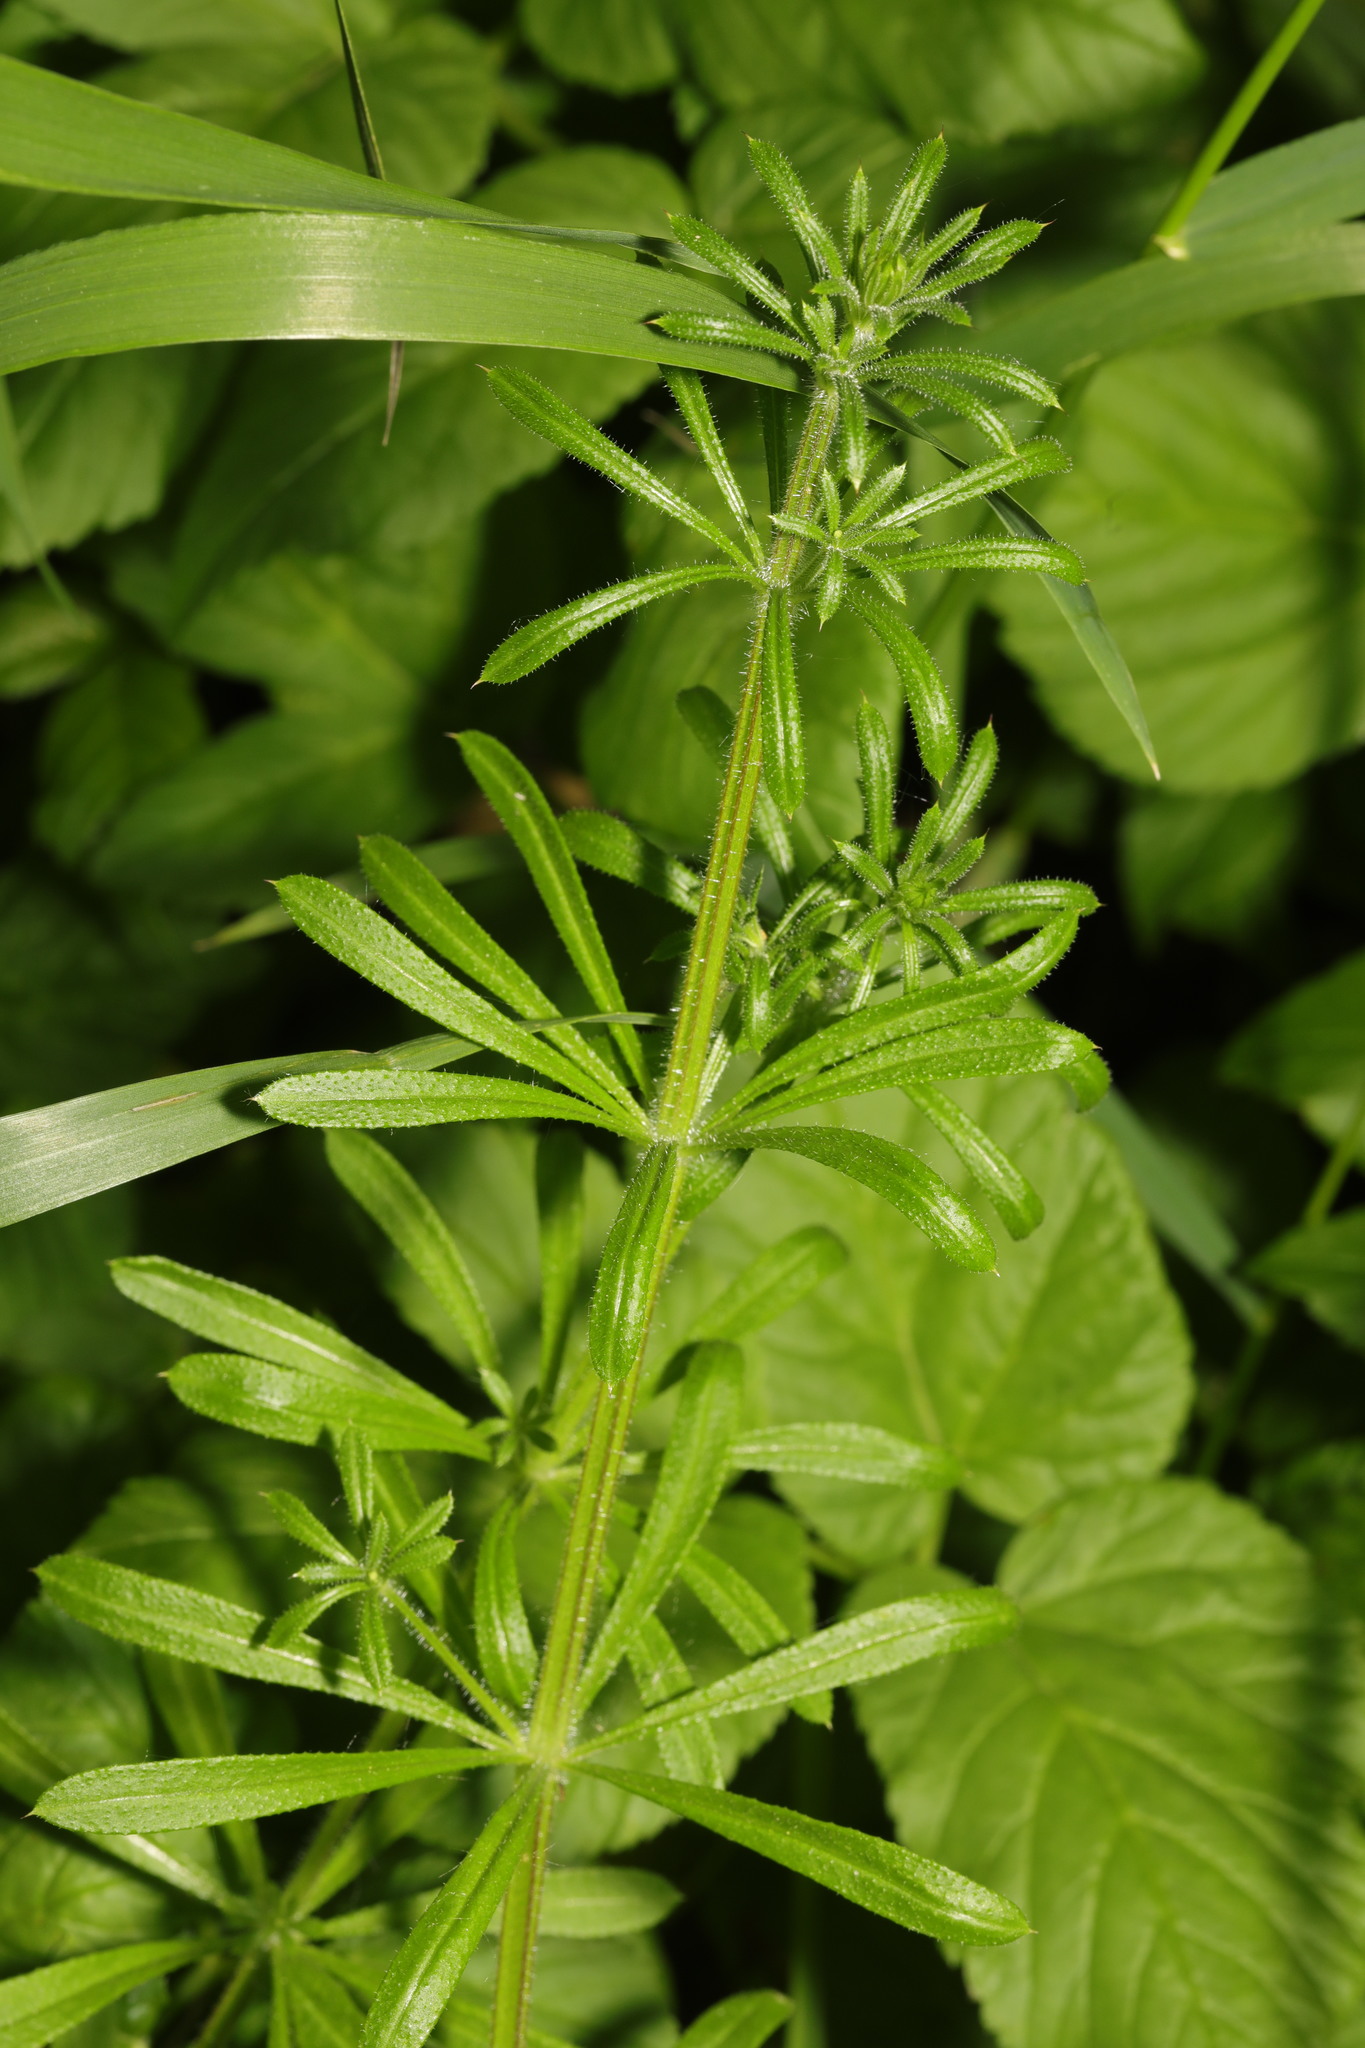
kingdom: Plantae
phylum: Tracheophyta
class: Magnoliopsida
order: Gentianales
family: Rubiaceae
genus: Galium
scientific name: Galium aparine
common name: Cleavers
